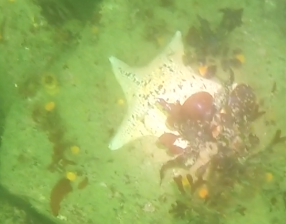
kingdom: Animalia
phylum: Echinodermata
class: Asteroidea
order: Valvatida
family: Asterinidae
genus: Patiria
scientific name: Patiria miniata
